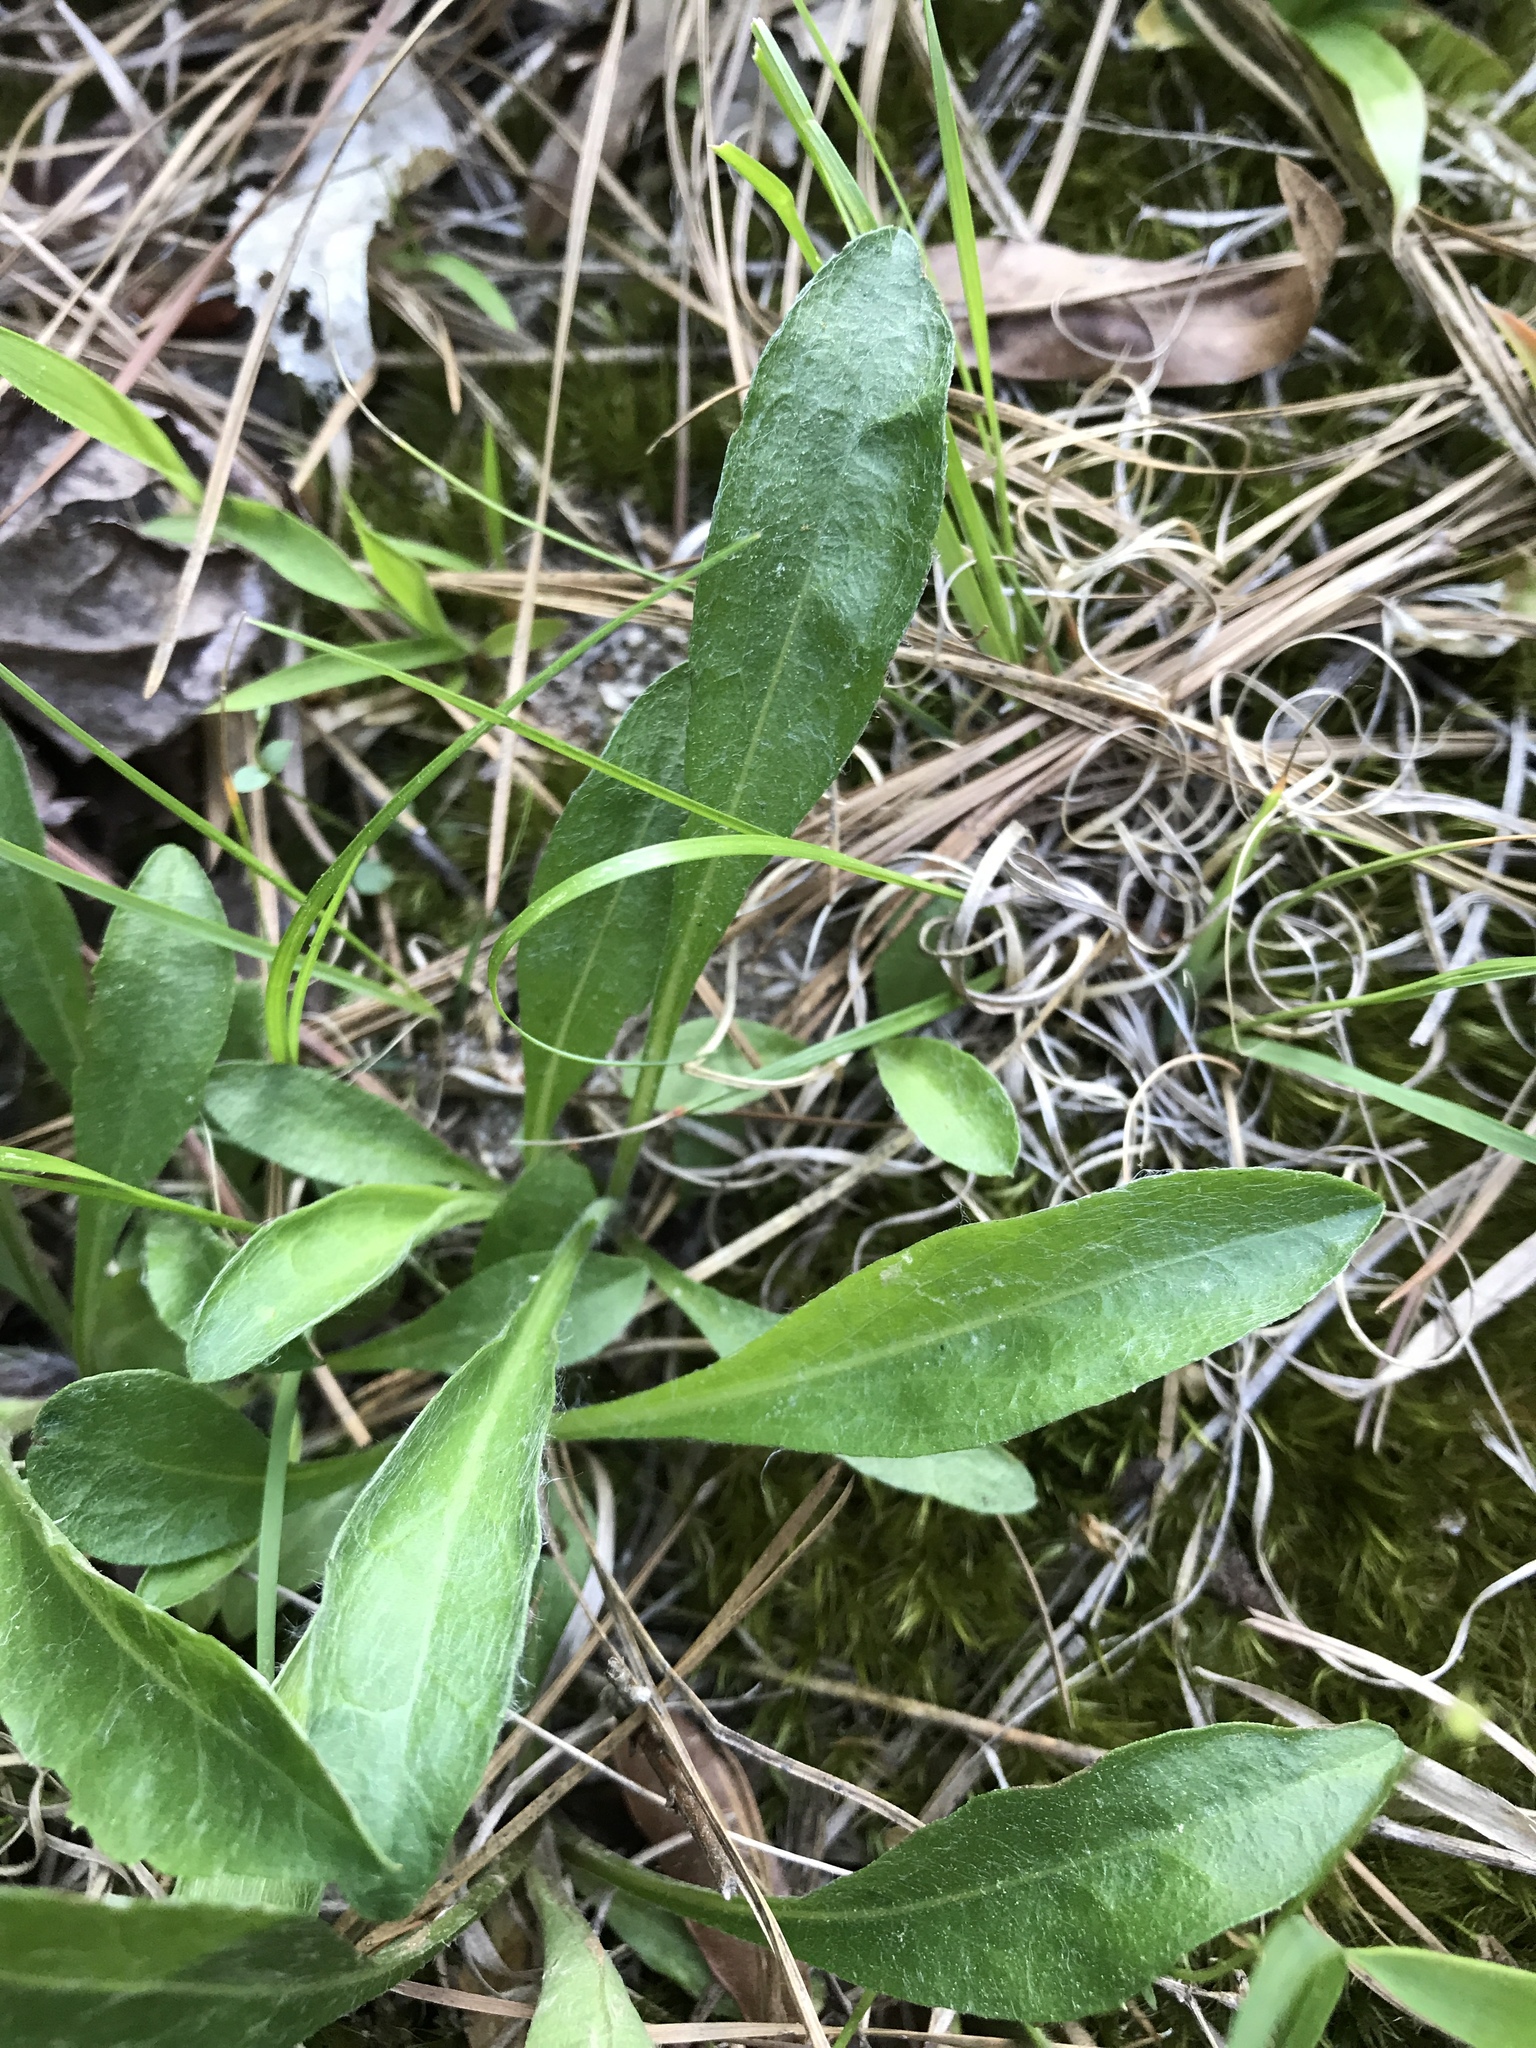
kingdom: Plantae
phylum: Tracheophyta
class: Magnoliopsida
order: Asterales
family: Asteraceae
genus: Chrysopsis
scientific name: Chrysopsis mariana
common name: Maryland golden-aster
